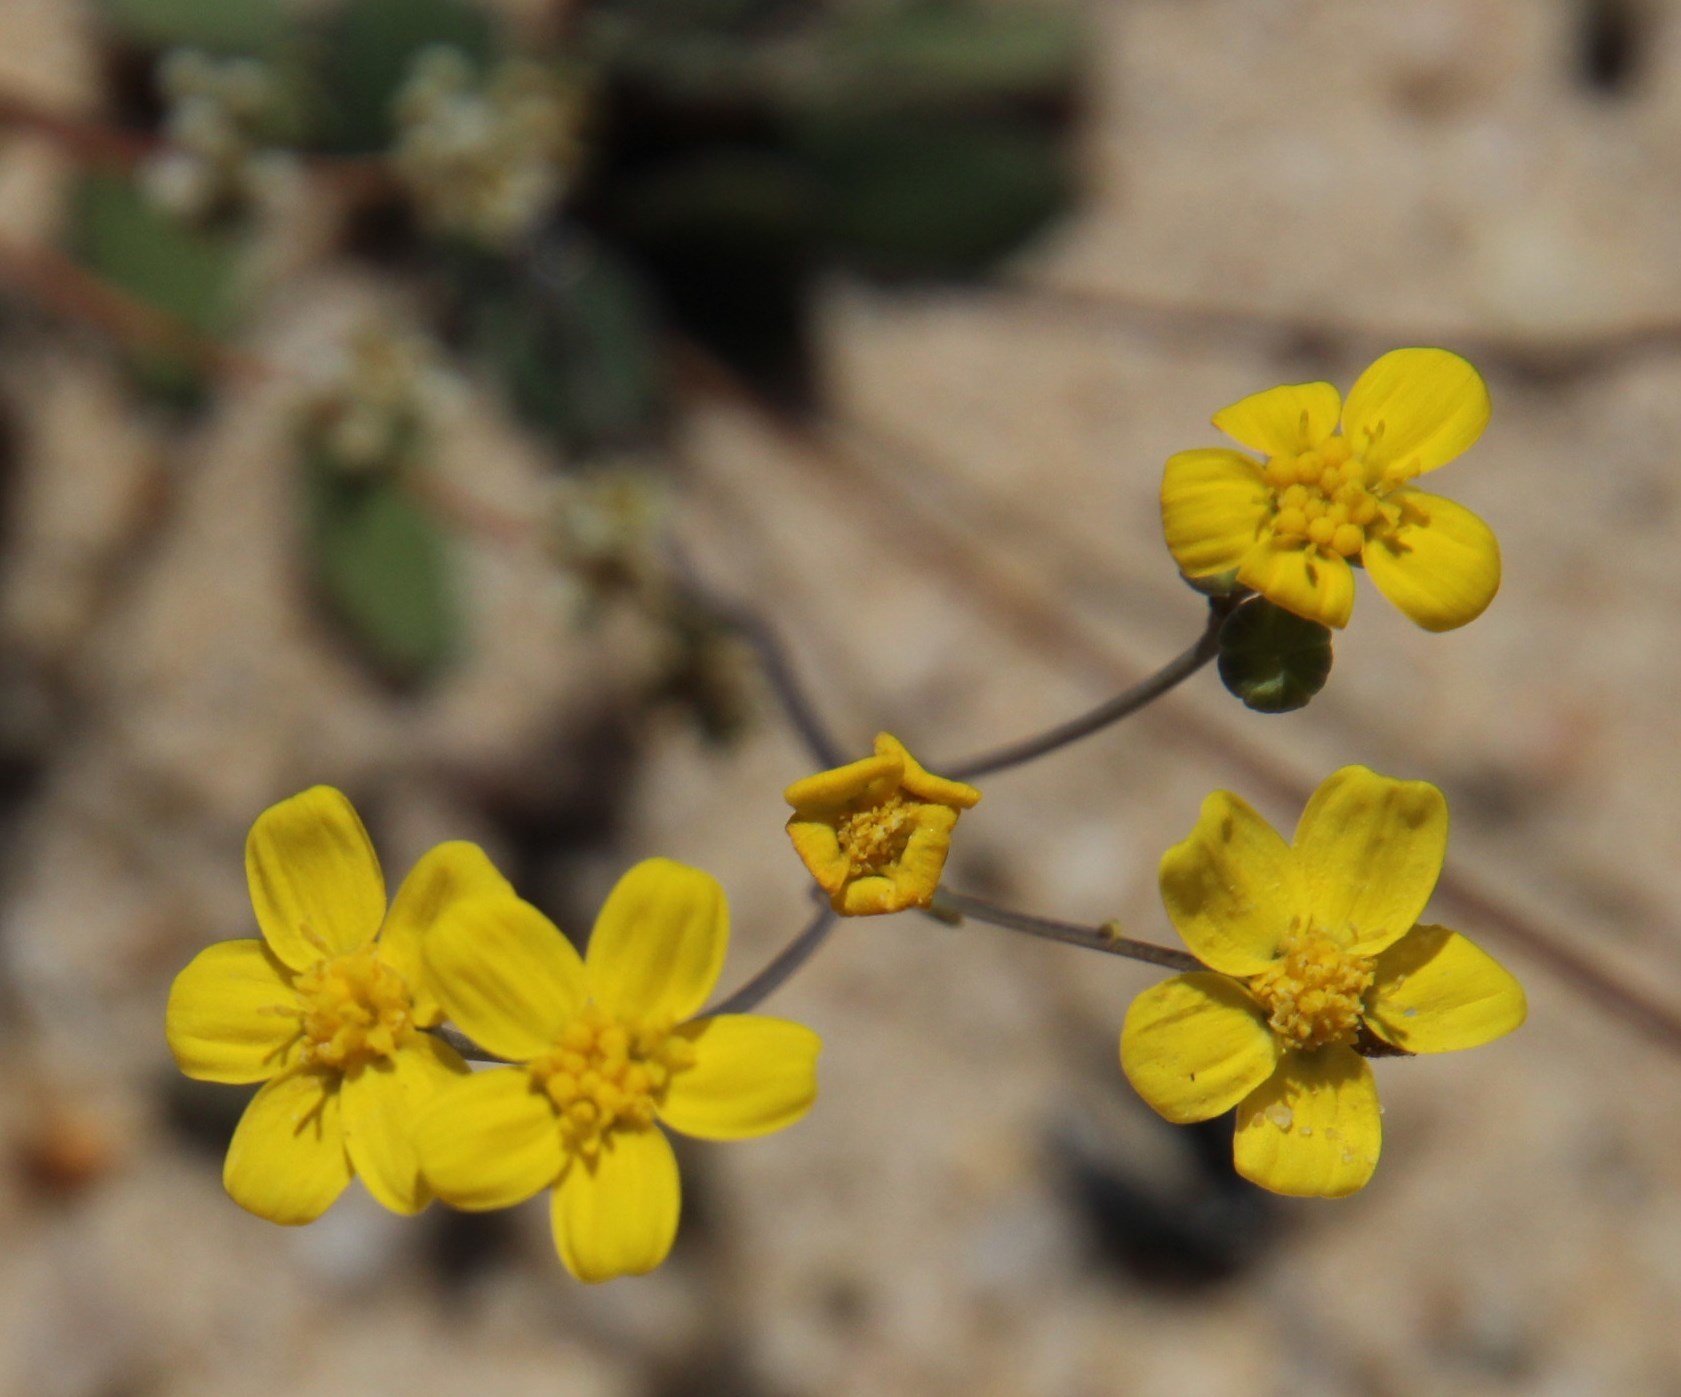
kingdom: Plantae
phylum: Tracheophyta
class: Magnoliopsida
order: Asterales
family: Asteraceae
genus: Gymnodiscus
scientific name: Gymnodiscus capillaris
